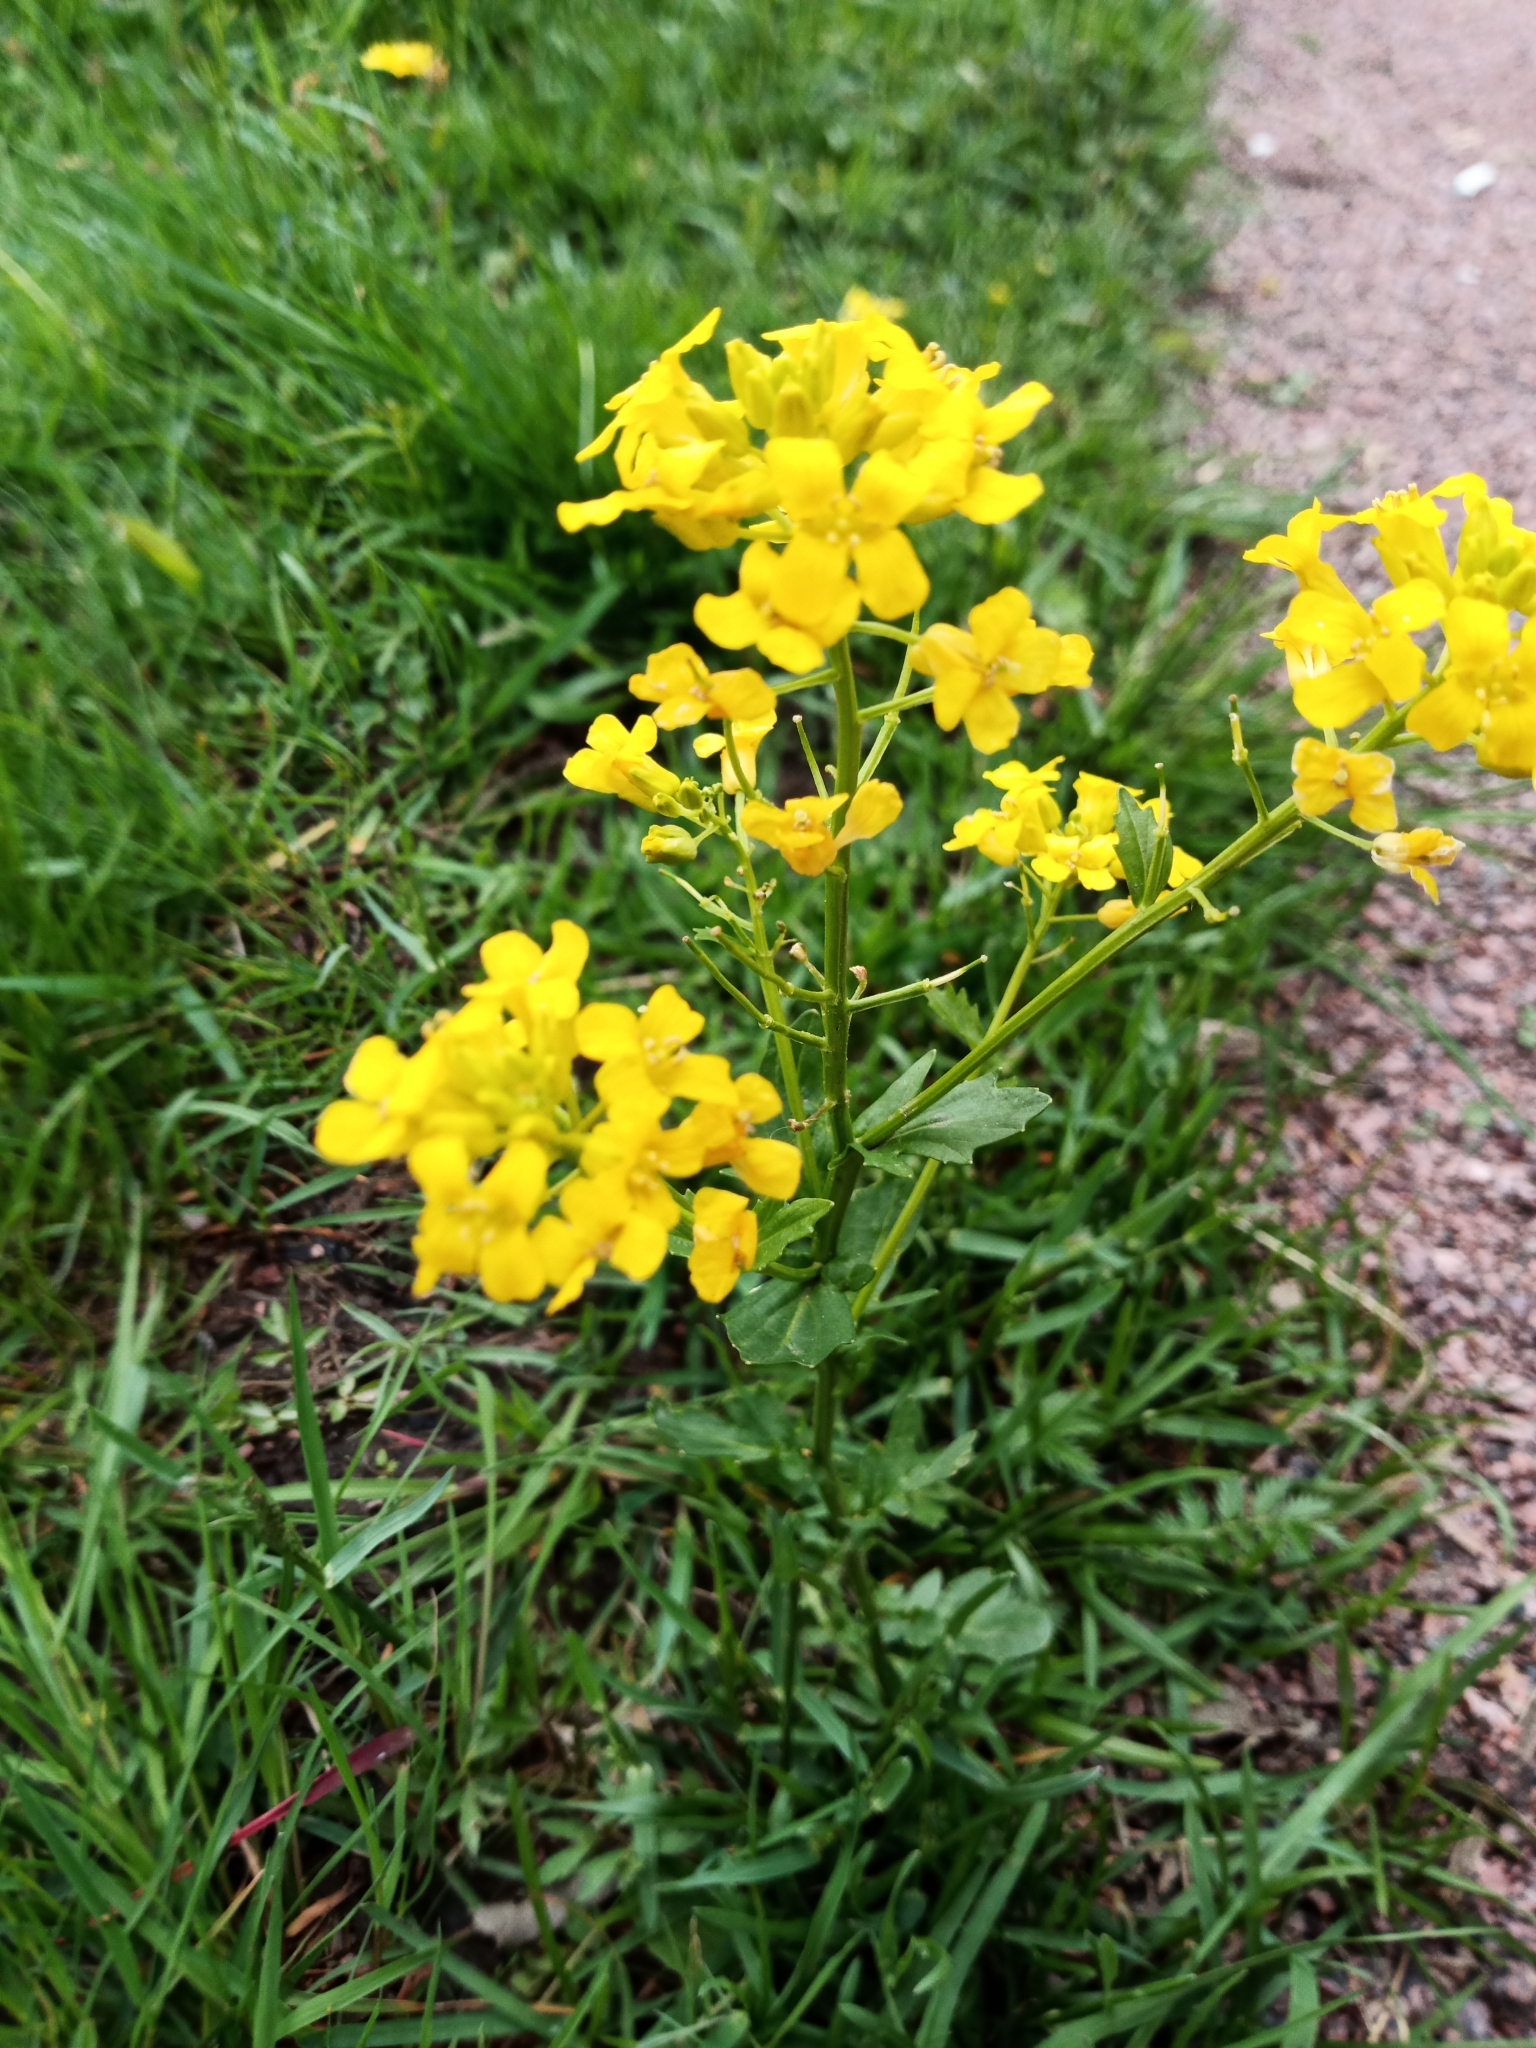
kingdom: Plantae
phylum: Tracheophyta
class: Magnoliopsida
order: Brassicales
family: Brassicaceae
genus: Barbarea
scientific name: Barbarea vulgaris
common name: Cressy-greens
